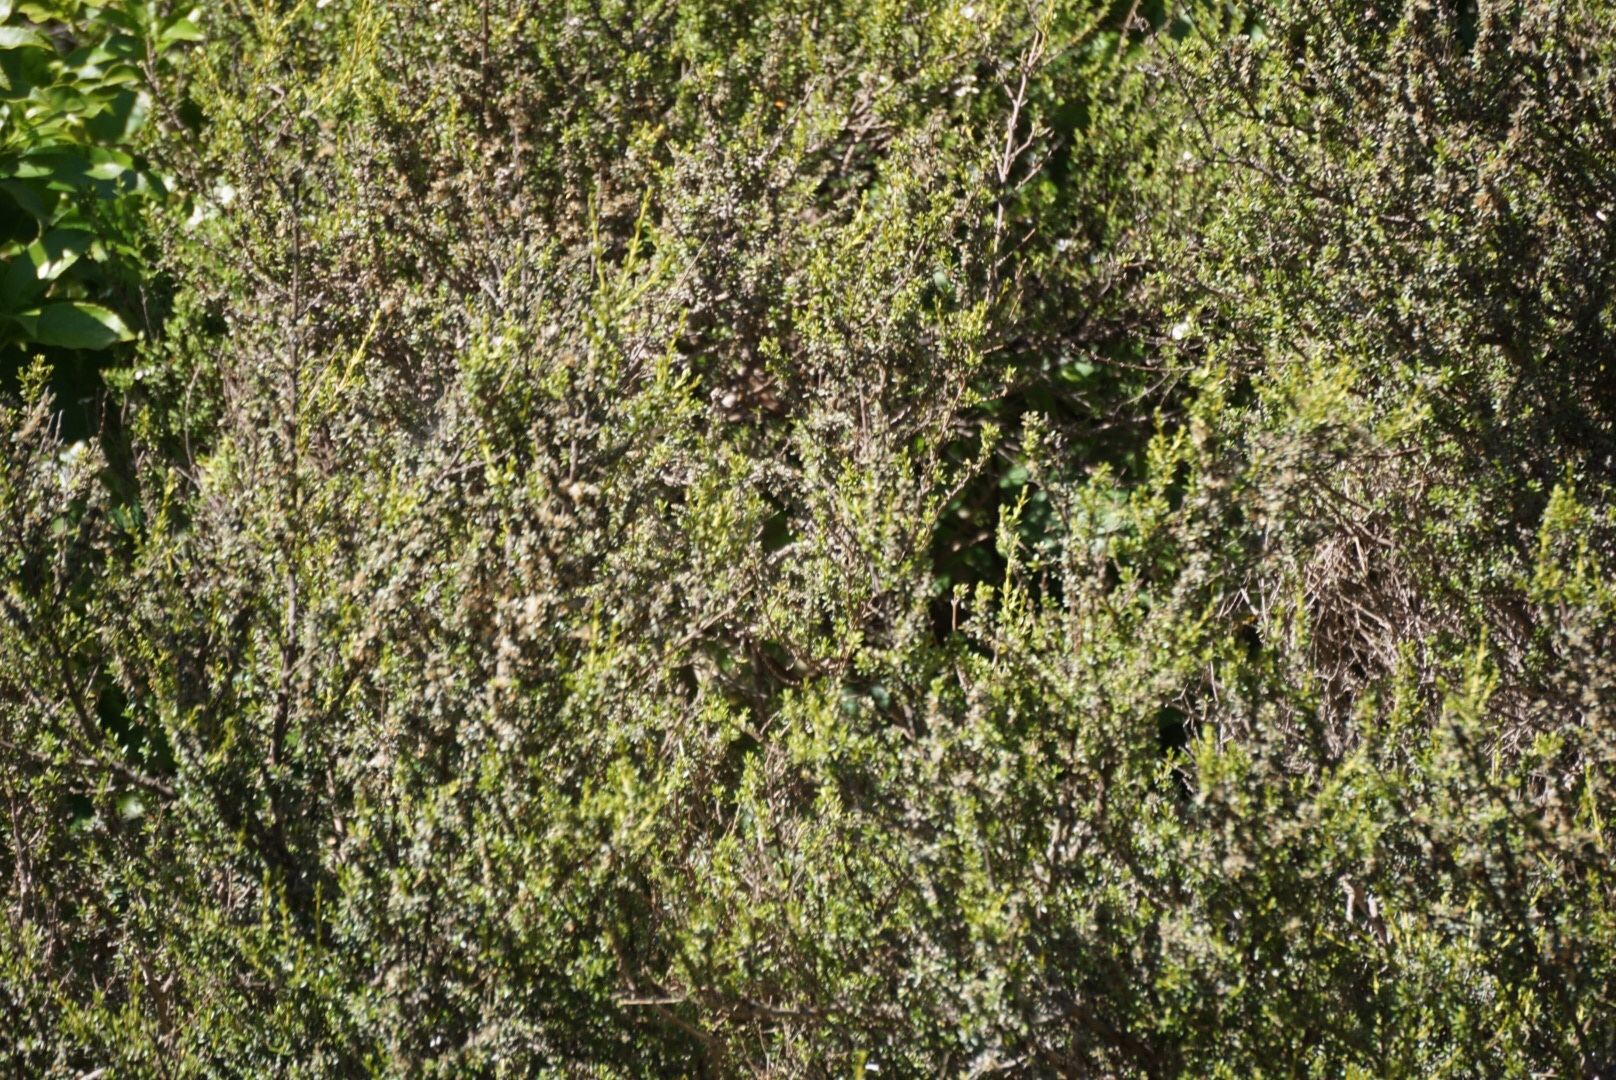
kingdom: Plantae
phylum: Tracheophyta
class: Magnoliopsida
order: Asterales
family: Asteraceae
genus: Olearia
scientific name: Olearia solandri
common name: Coastal daisybush
